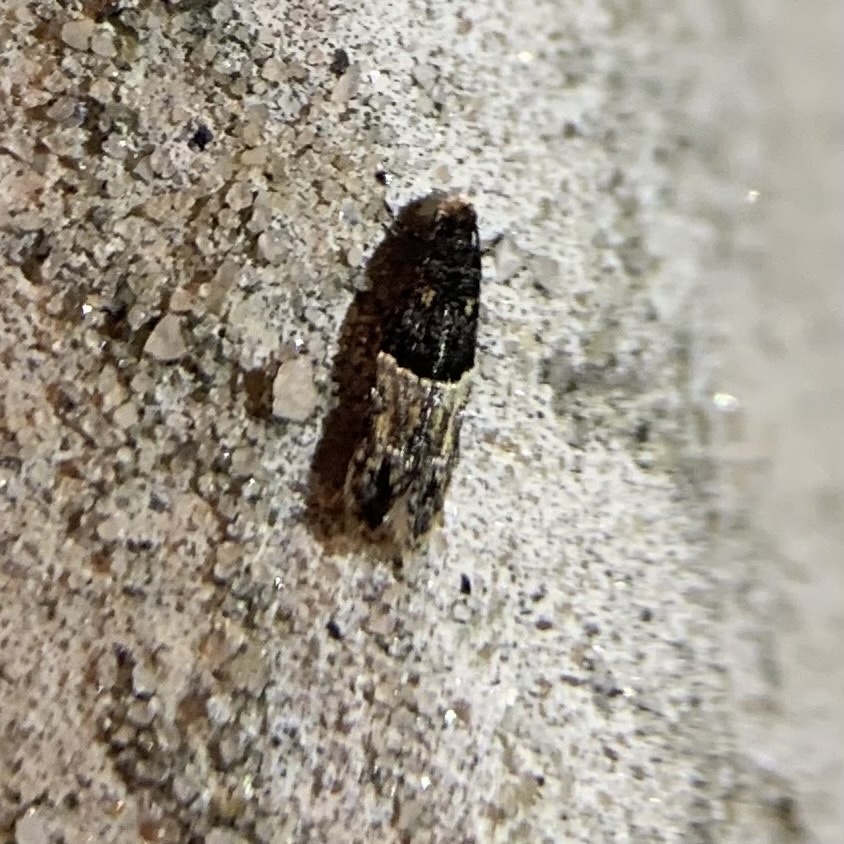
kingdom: Animalia
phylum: Arthropoda
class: Insecta
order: Lepidoptera
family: Meessiidae
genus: Oenoe
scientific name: Oenoe hybromella
